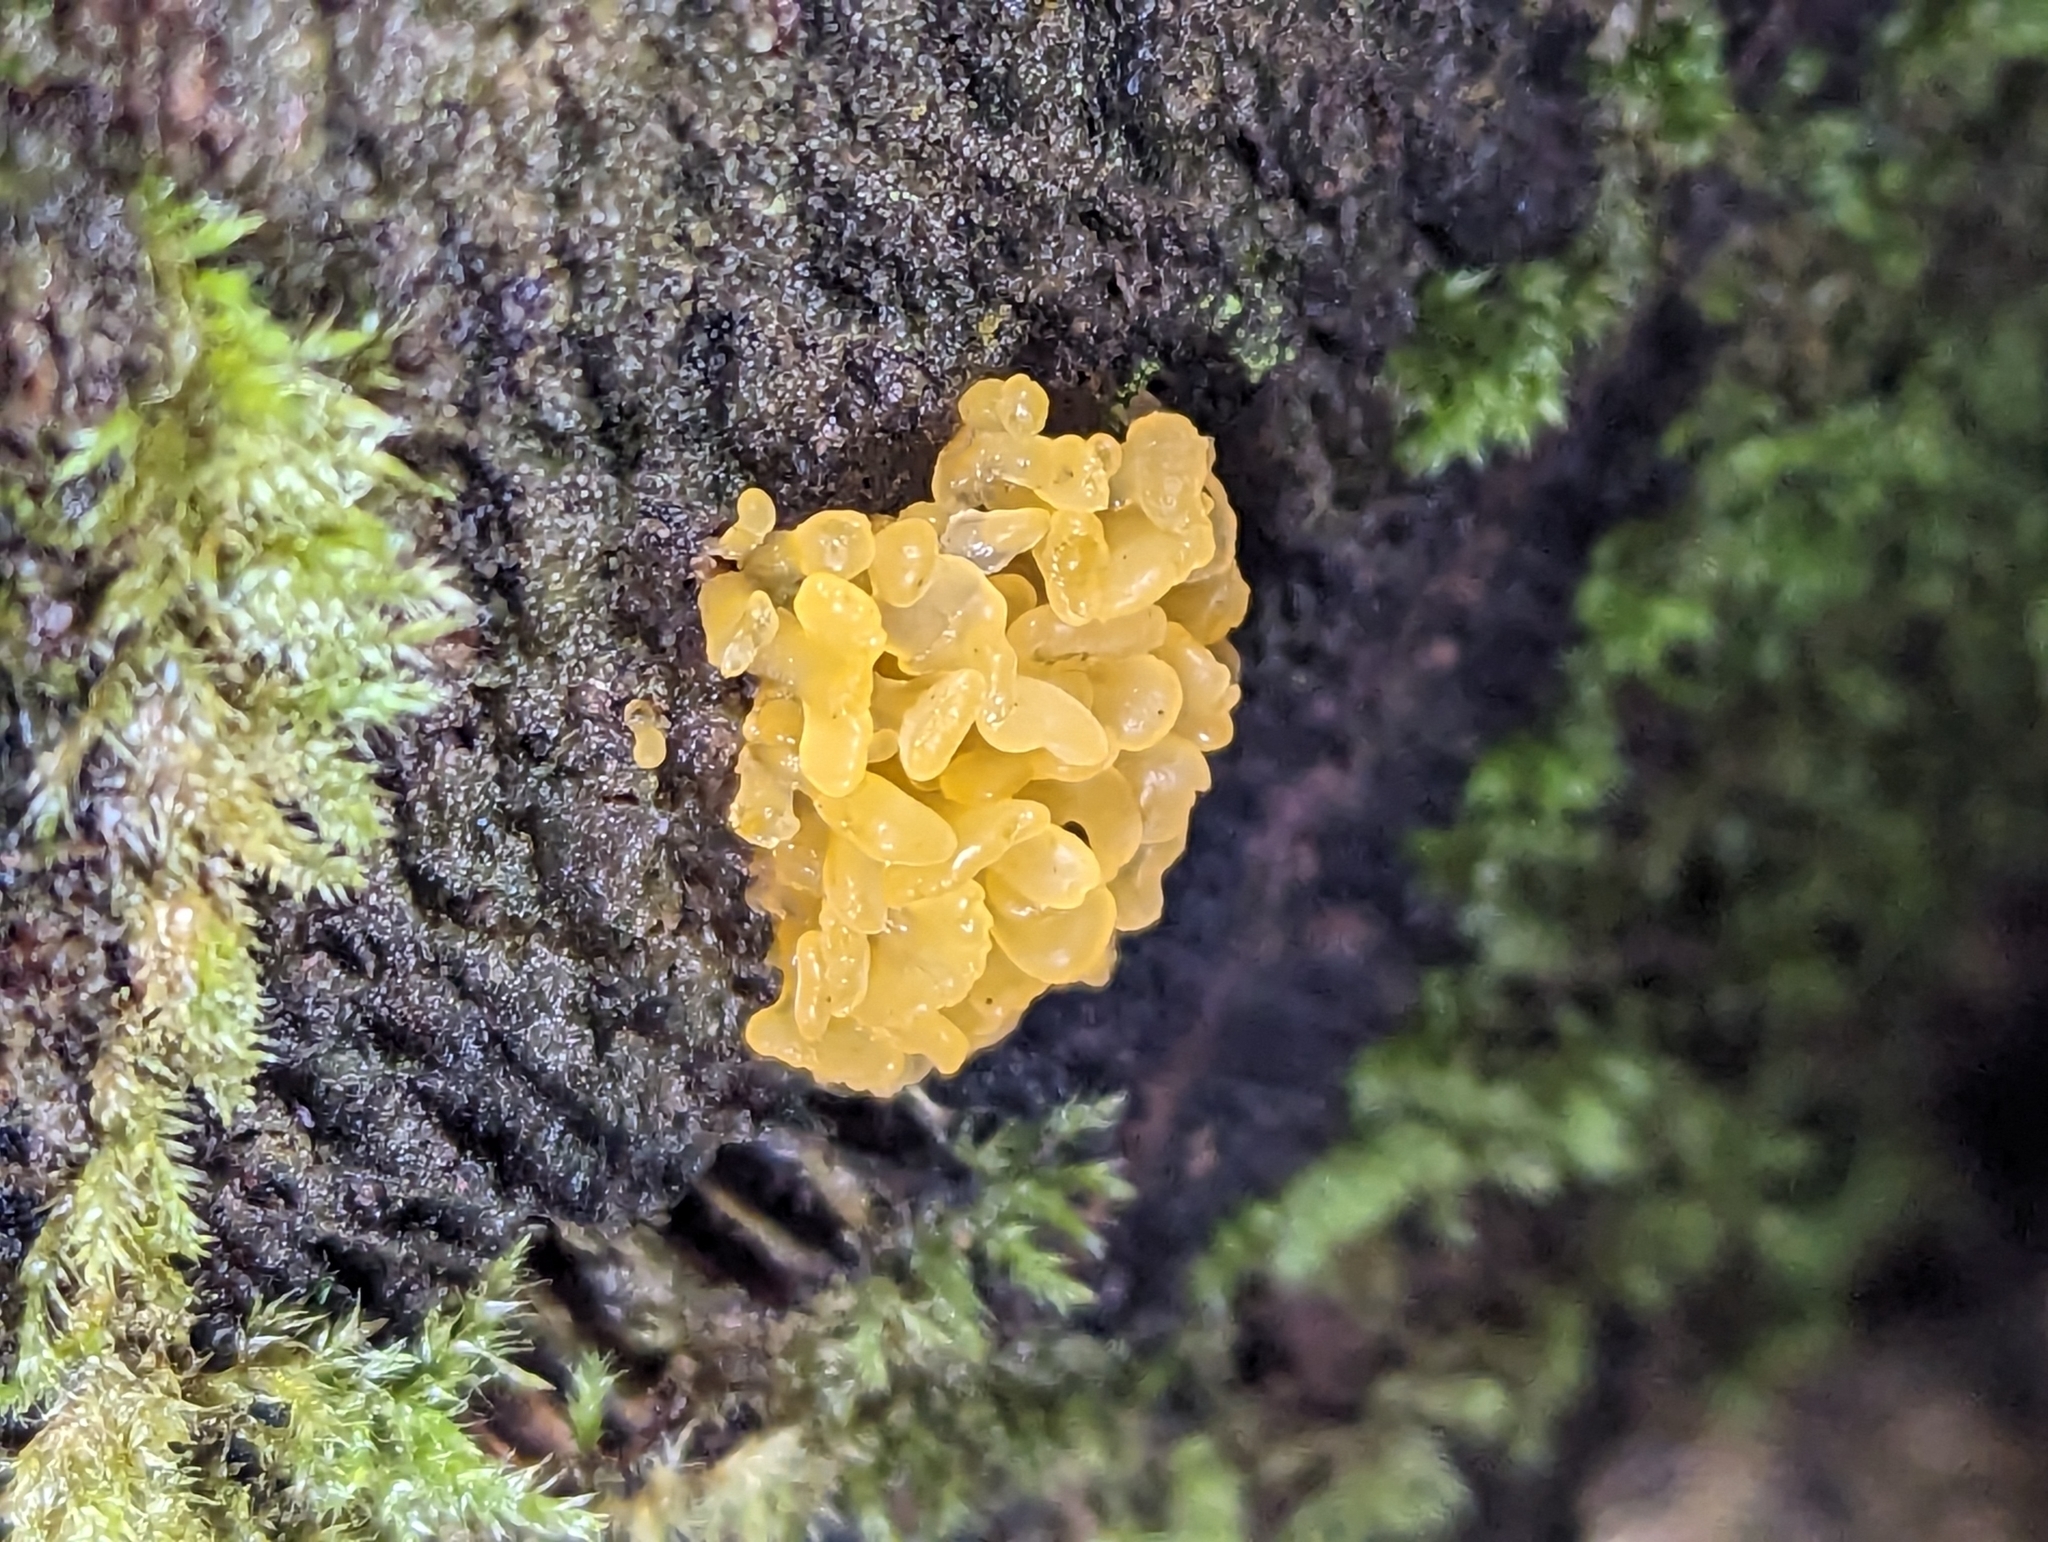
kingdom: Fungi
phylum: Basidiomycota
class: Tremellomycetes
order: Tremellales
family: Tremellaceae
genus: Tremella
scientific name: Tremella mesenterica
